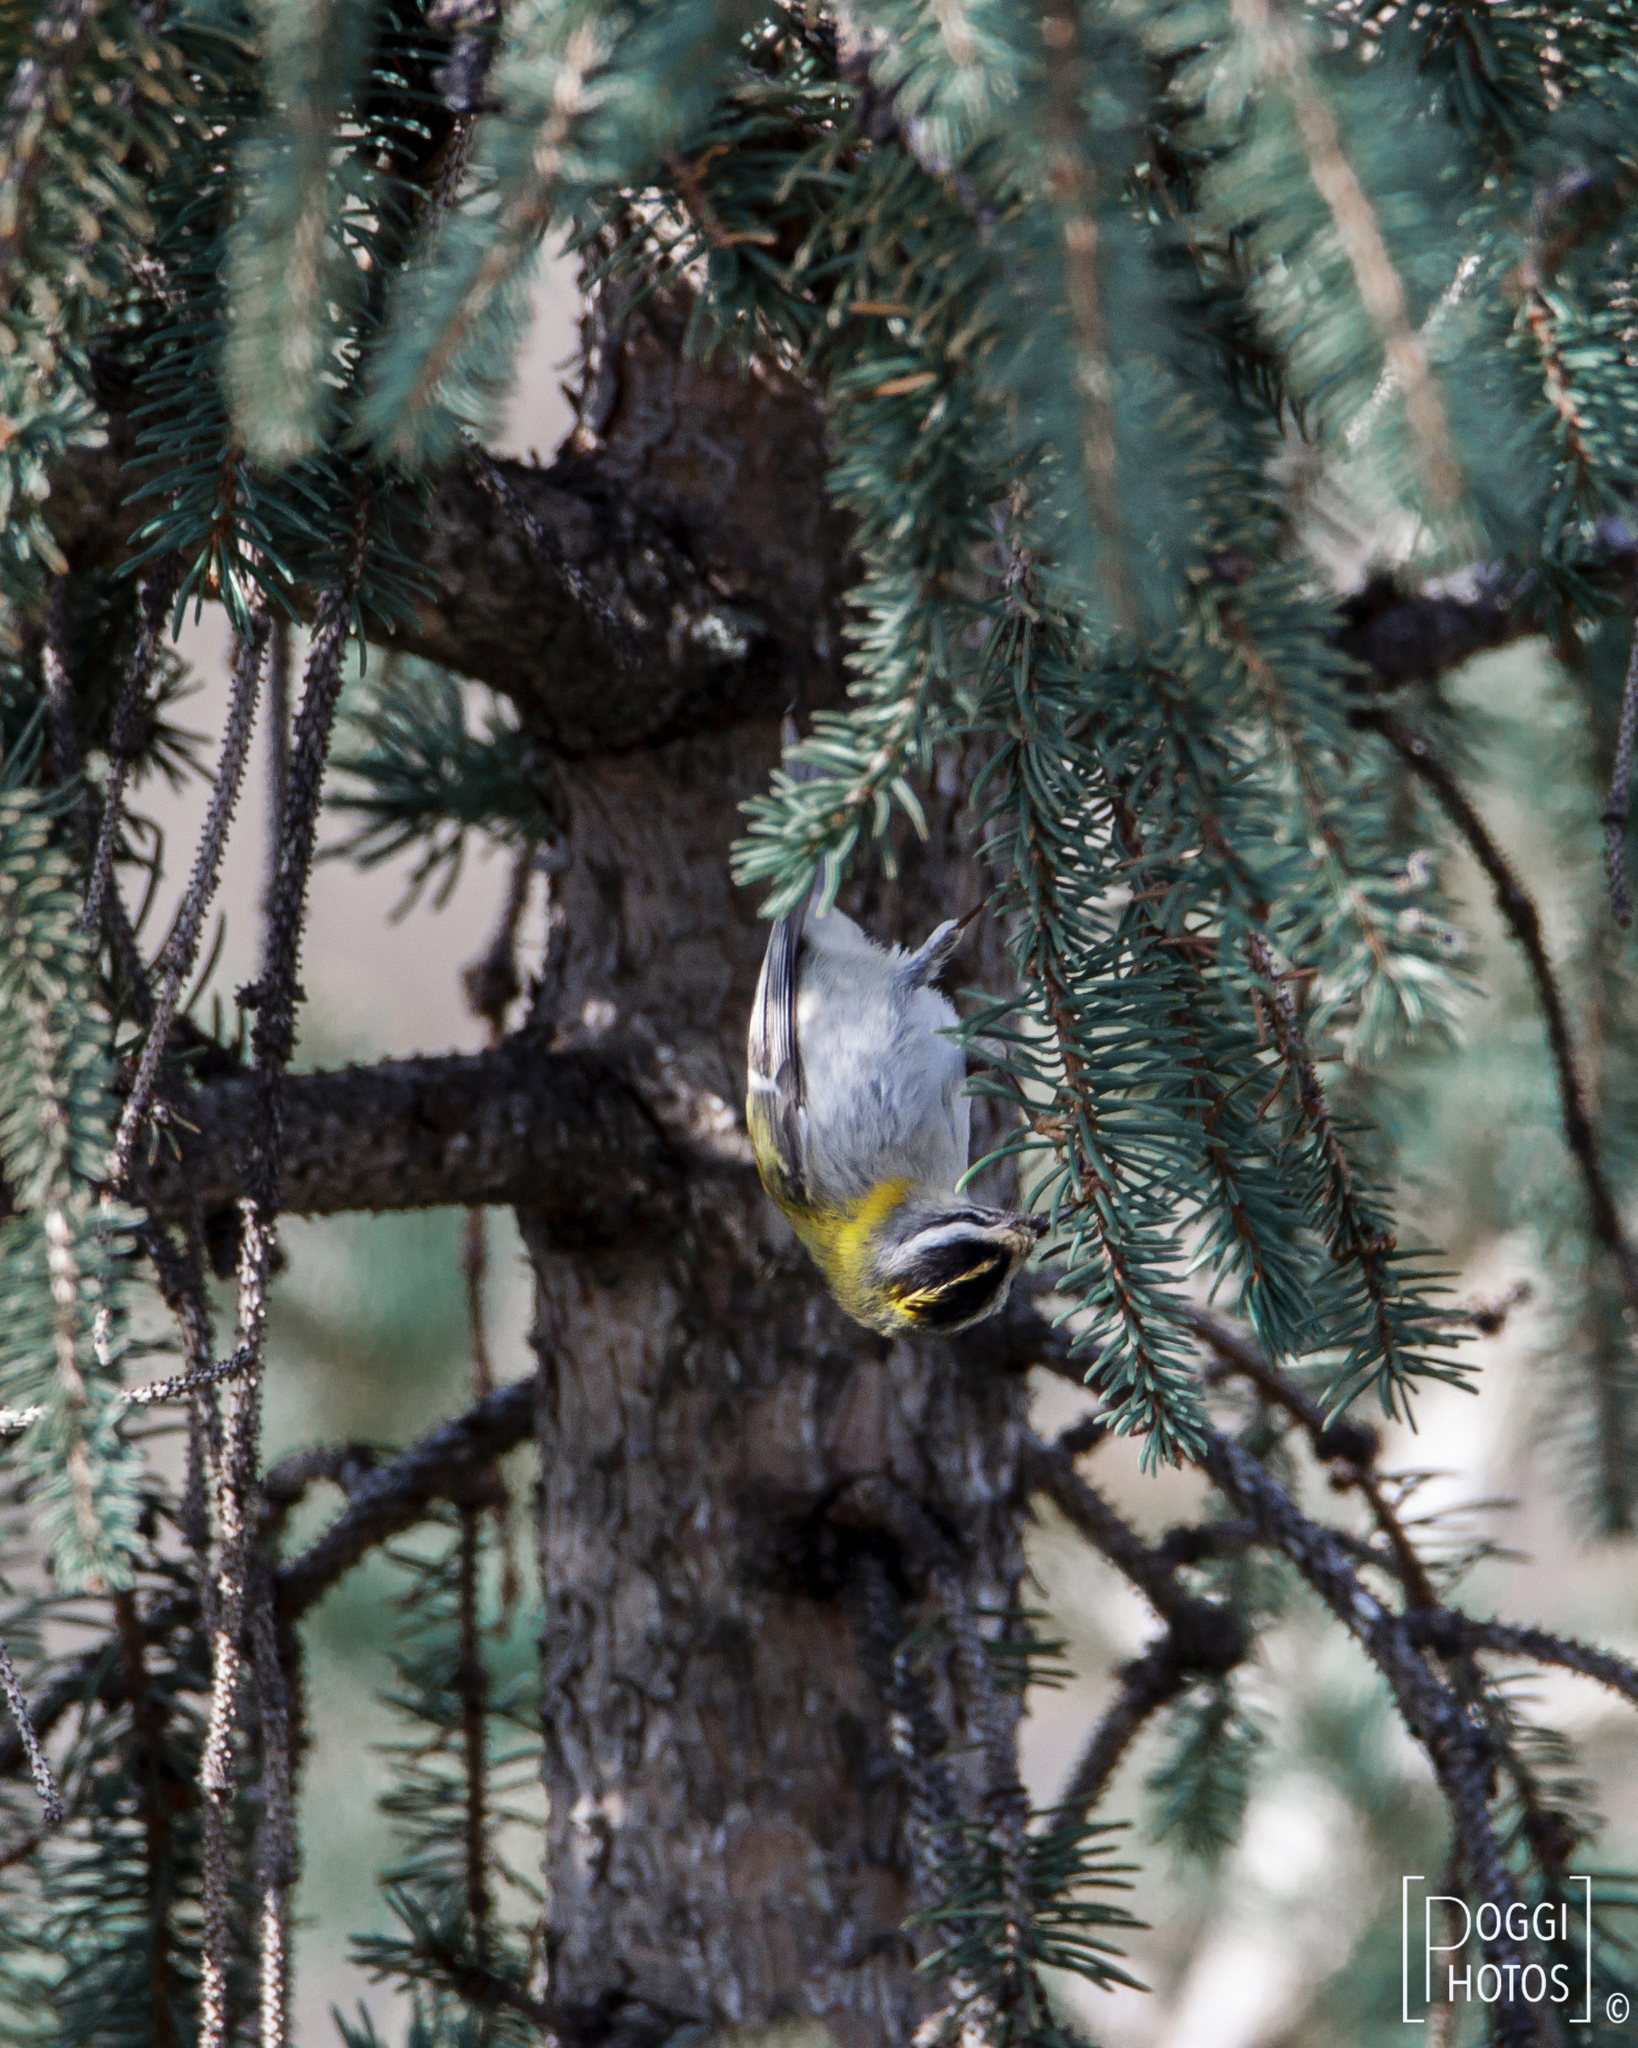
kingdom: Animalia
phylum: Chordata
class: Aves
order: Passeriformes
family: Regulidae
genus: Regulus
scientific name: Regulus ignicapilla
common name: Firecrest
